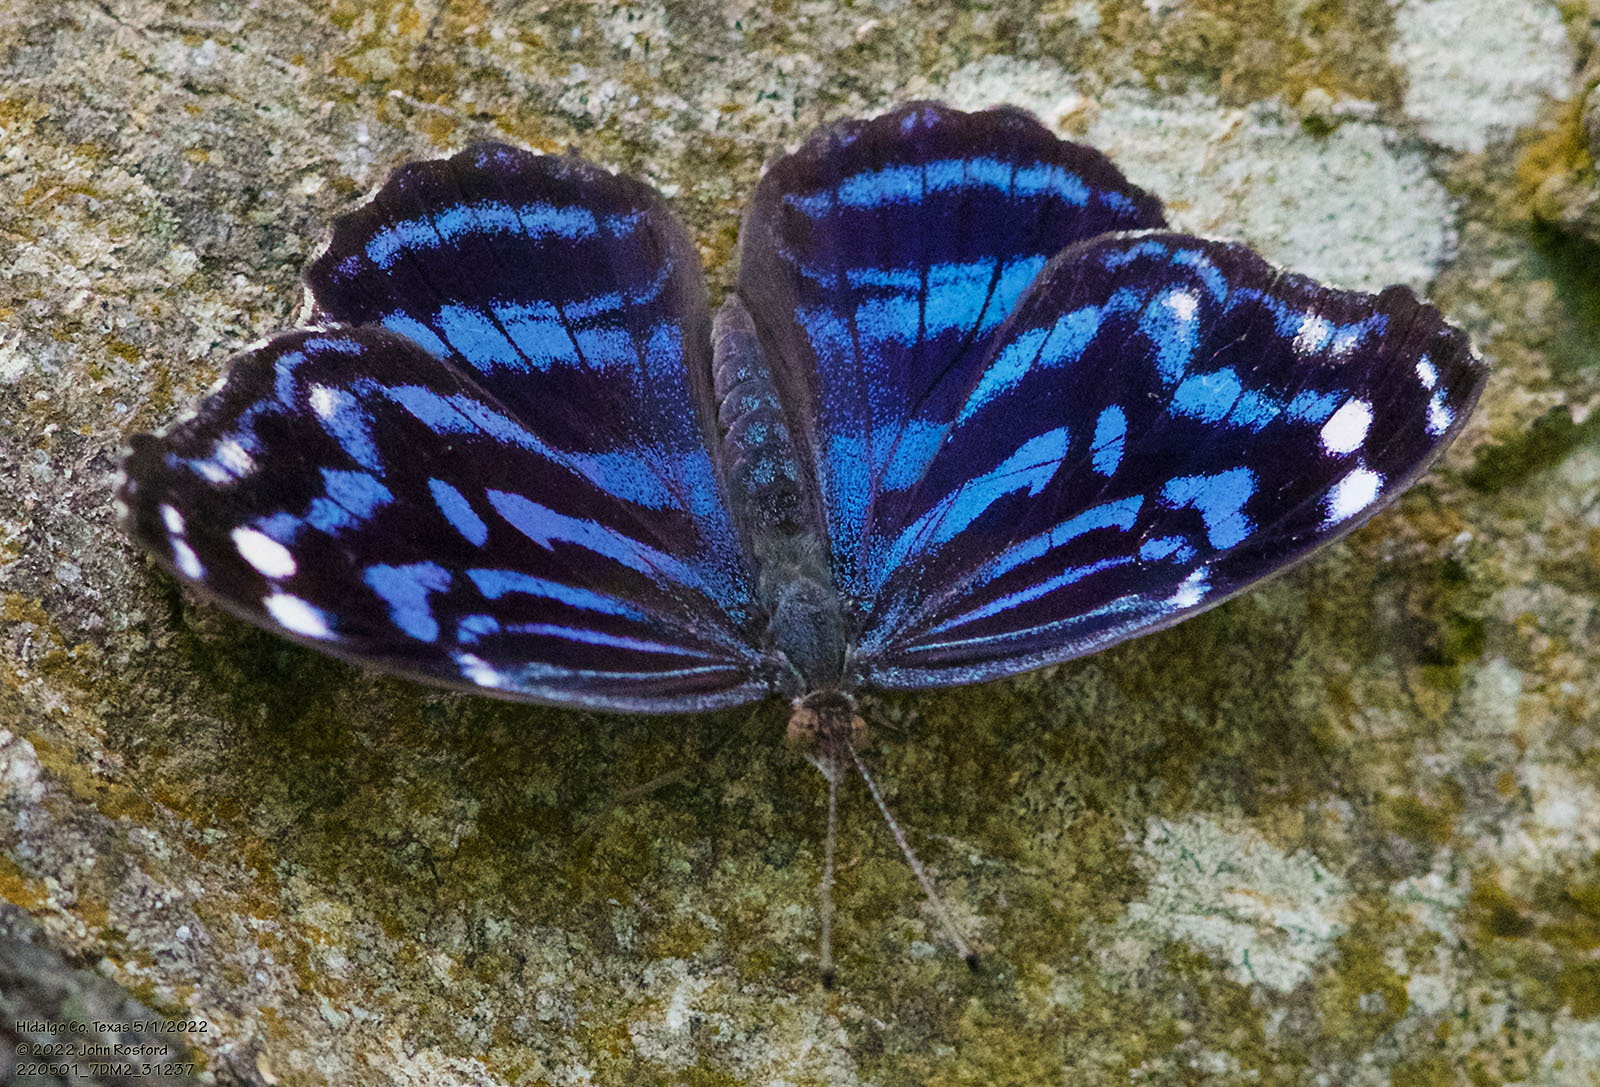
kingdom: Animalia
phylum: Arthropoda
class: Insecta
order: Lepidoptera
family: Nymphalidae
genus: Myscelia
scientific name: Myscelia ethusa
